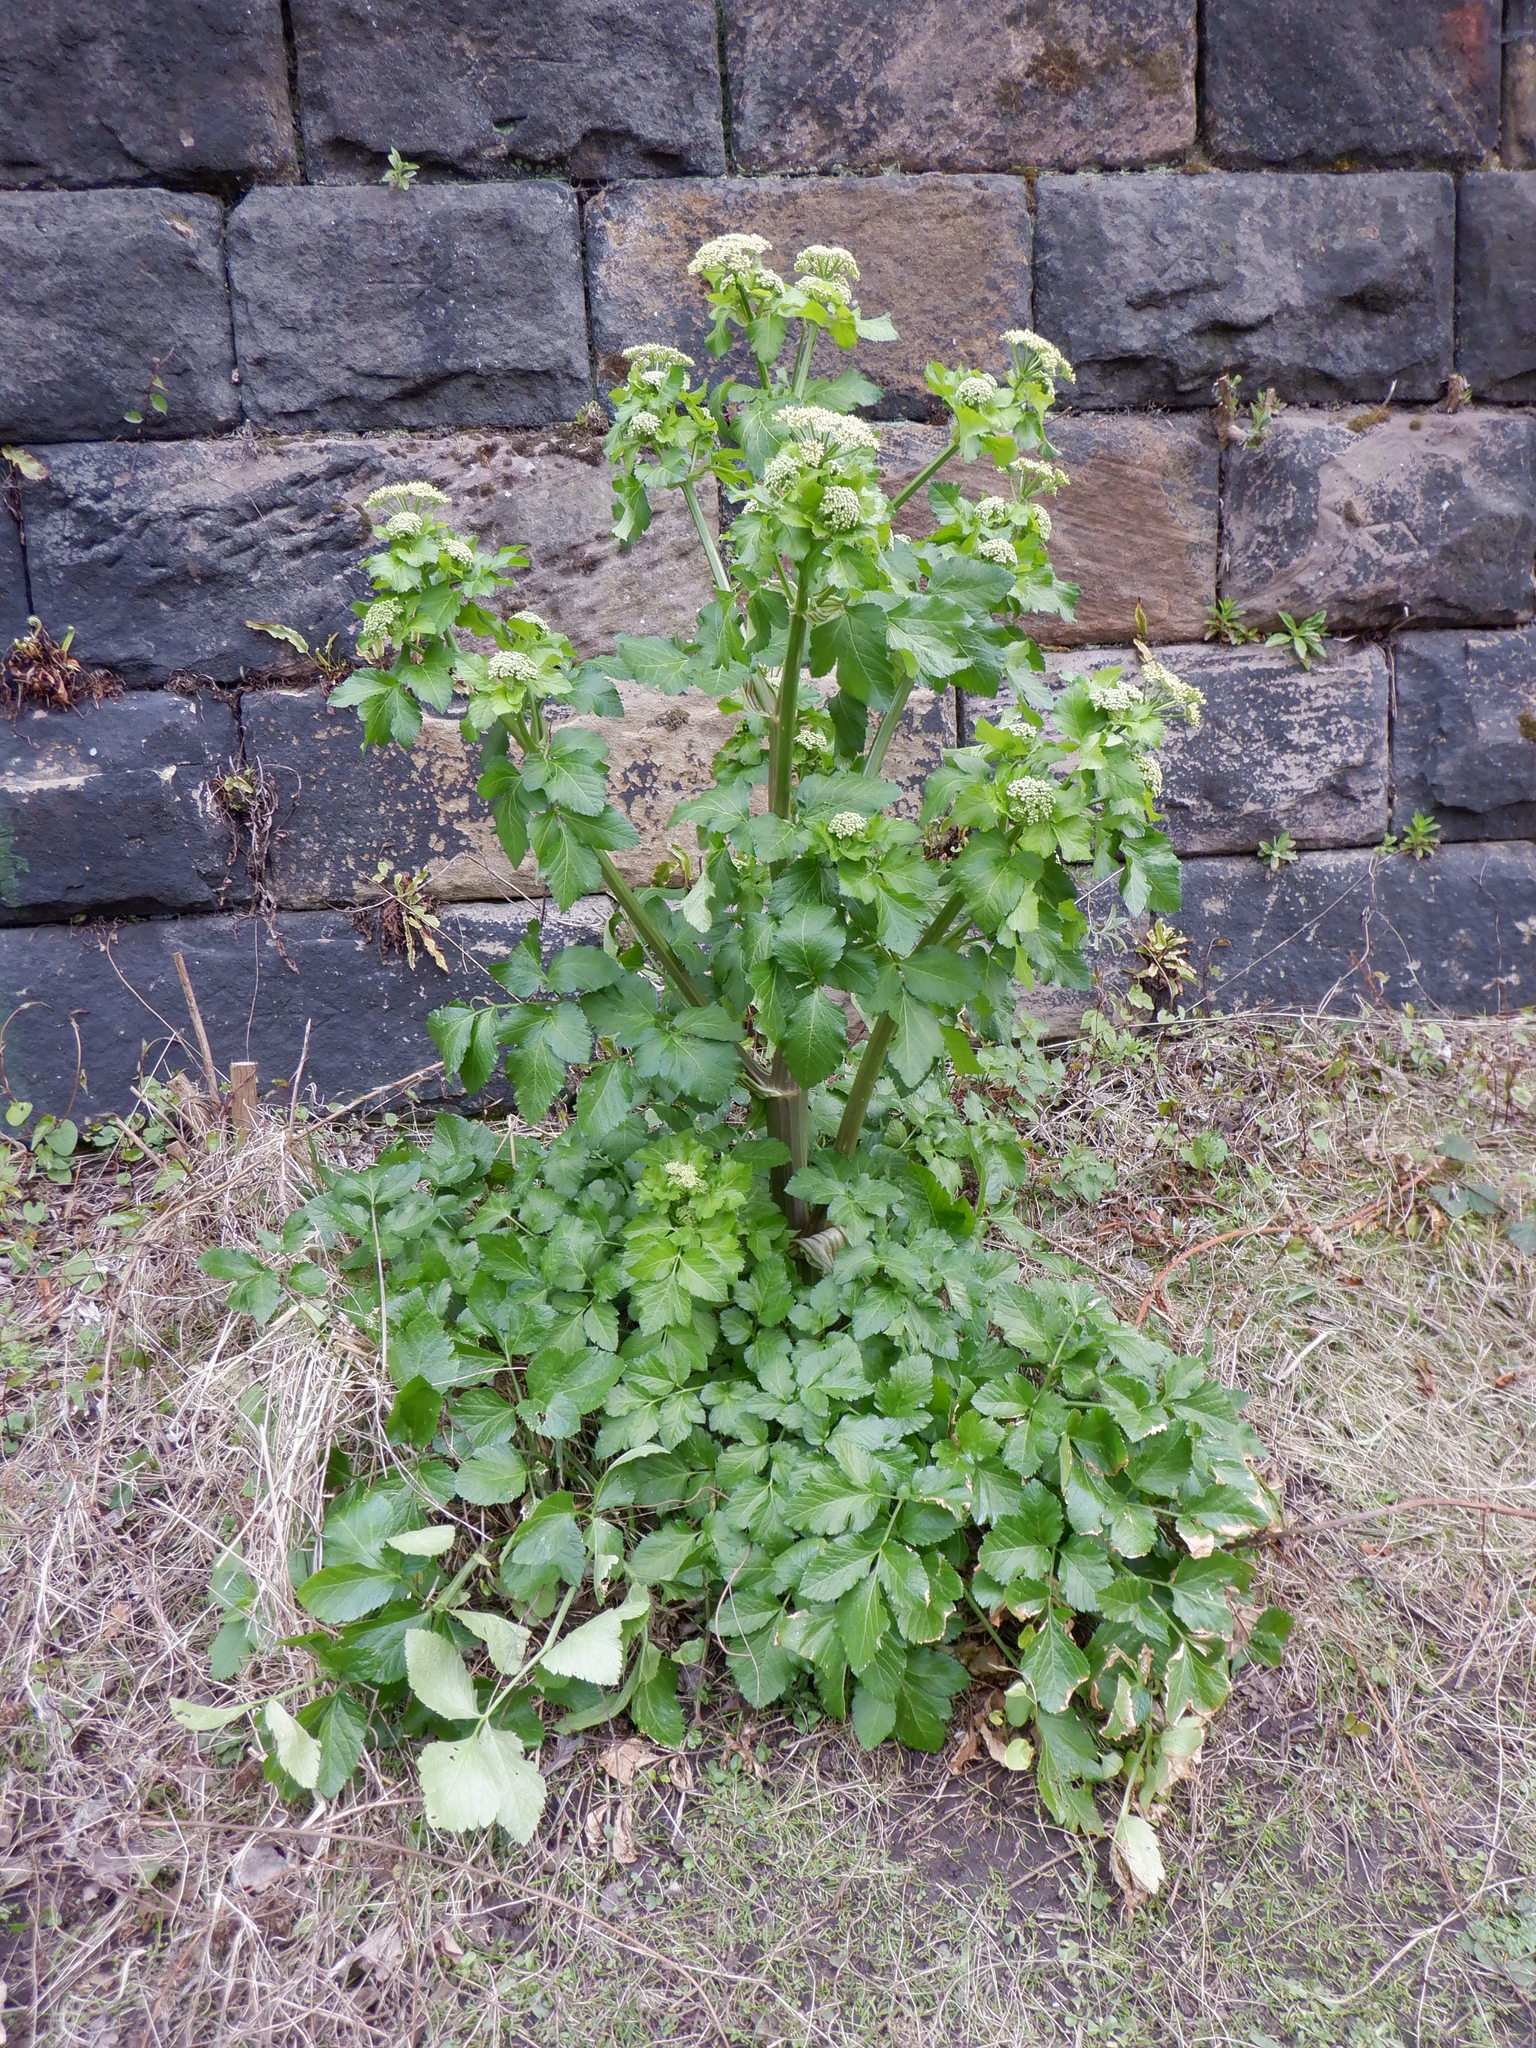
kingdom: Plantae
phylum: Tracheophyta
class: Magnoliopsida
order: Apiales
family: Apiaceae
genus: Smyrnium
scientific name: Smyrnium olusatrum
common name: Alexanders
